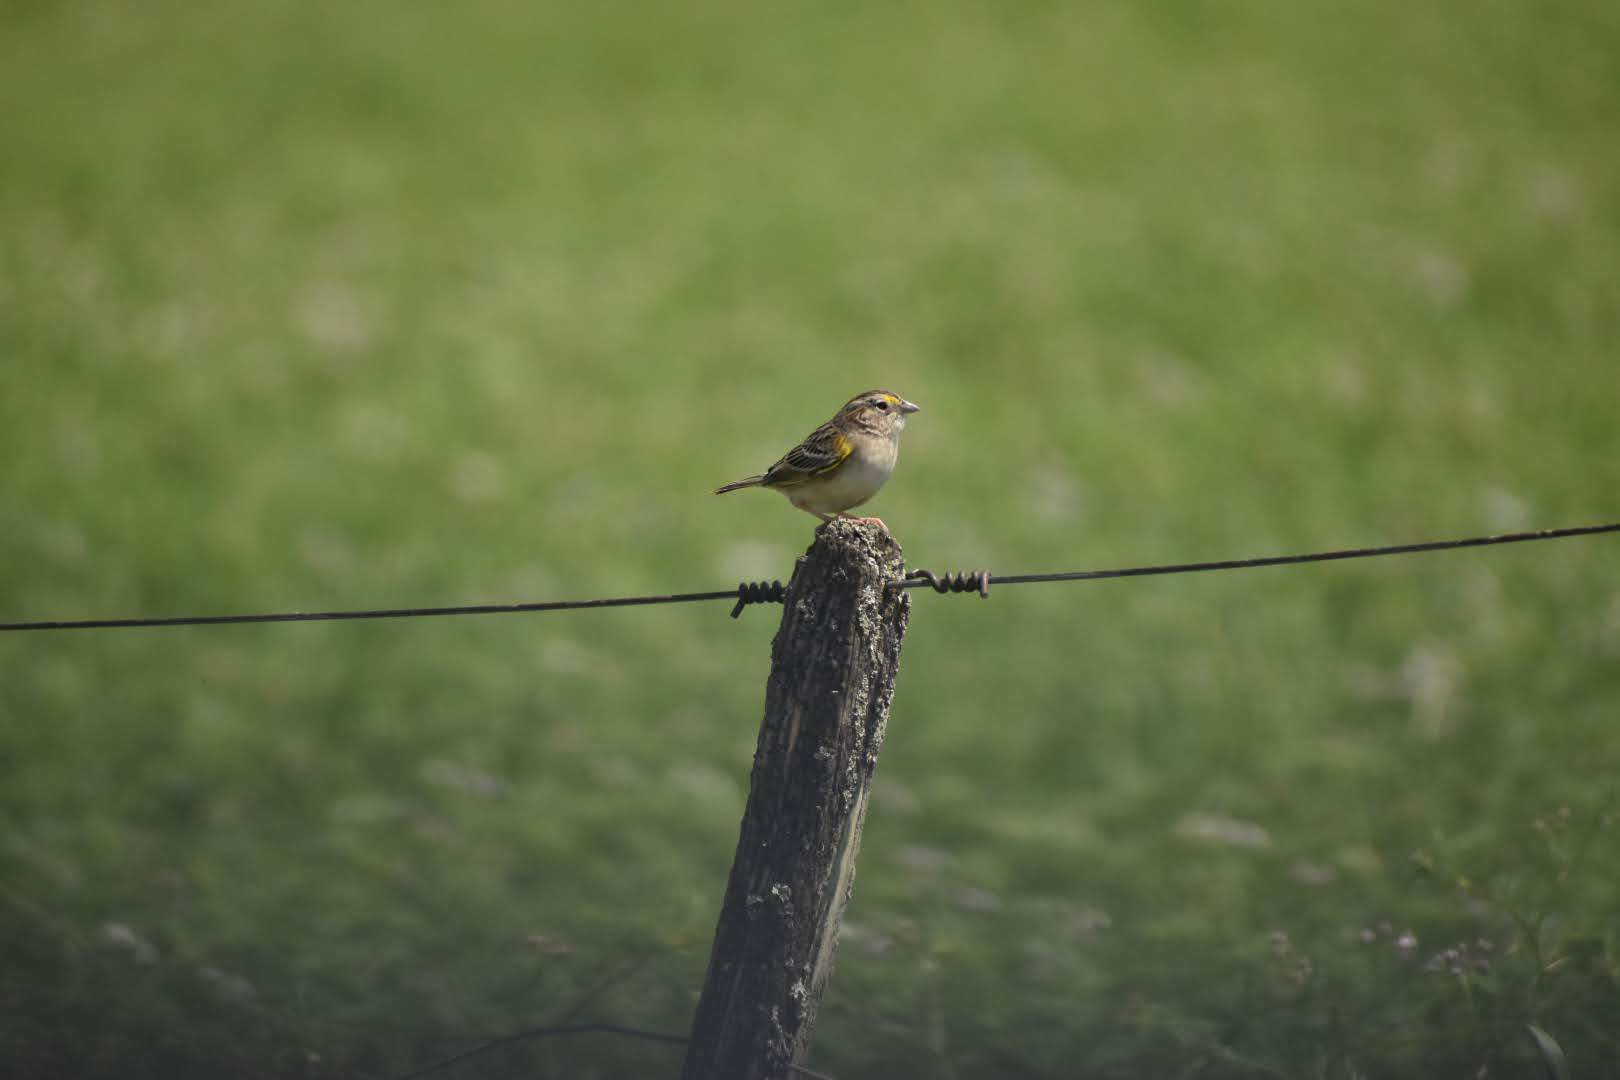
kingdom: Animalia
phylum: Chordata
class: Aves
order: Passeriformes
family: Passerellidae
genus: Ammodramus
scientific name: Ammodramus humeralis
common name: Grassland sparrow
